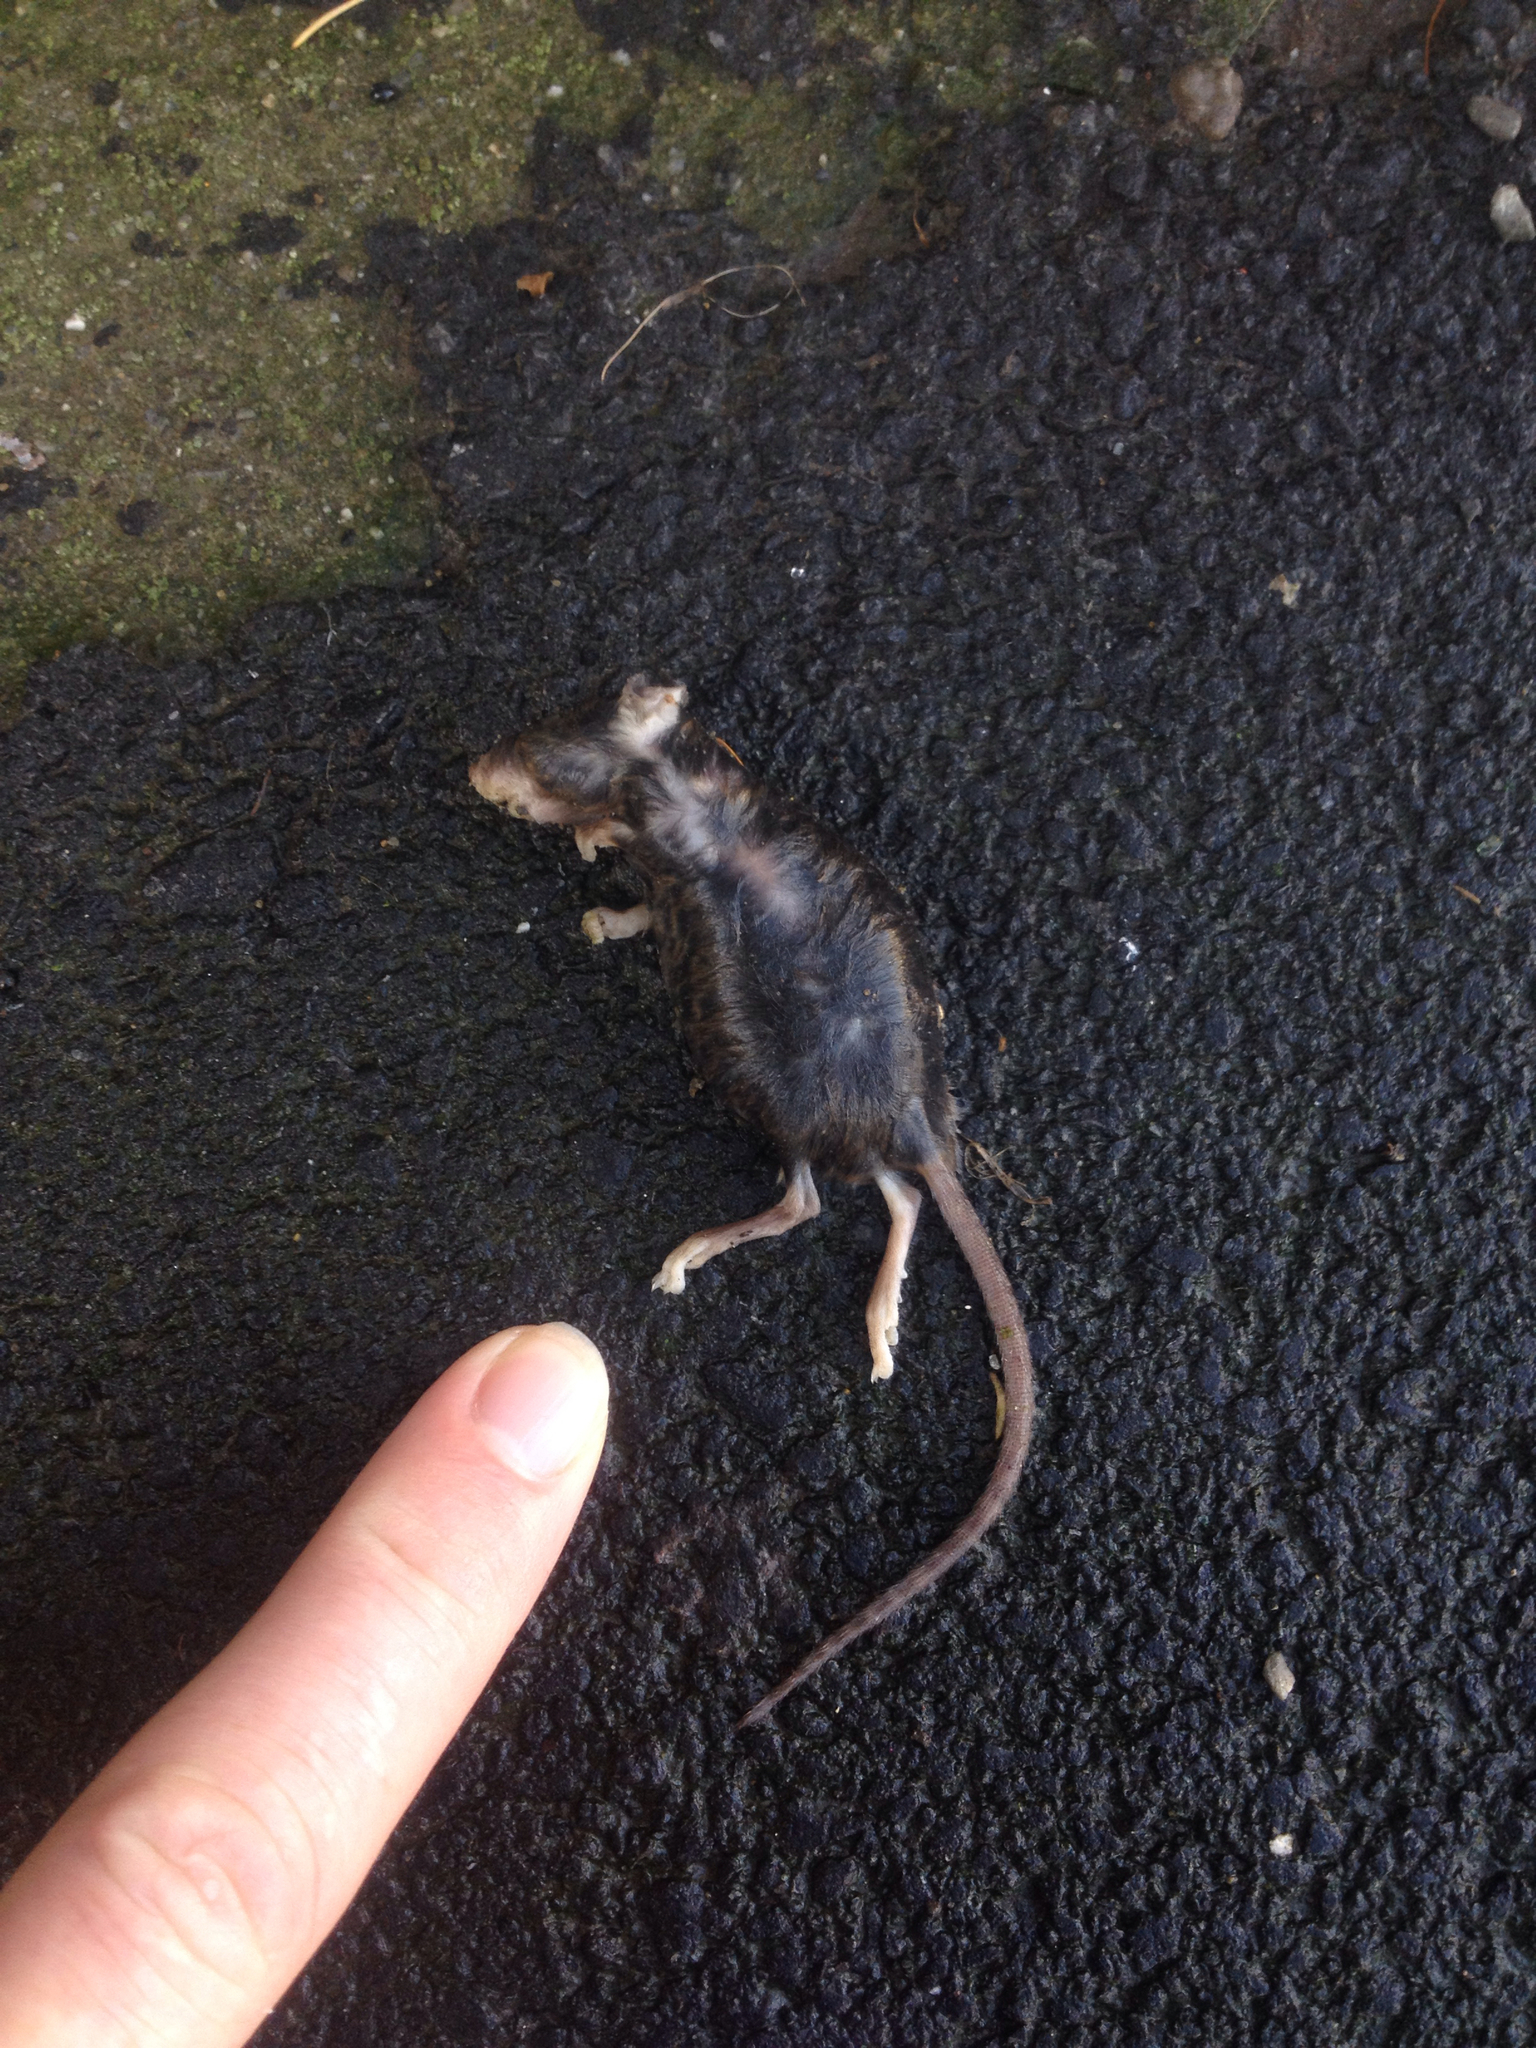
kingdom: Animalia
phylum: Chordata
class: Mammalia
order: Rodentia
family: Muridae
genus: Mus
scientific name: Mus musculus
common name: House mouse
